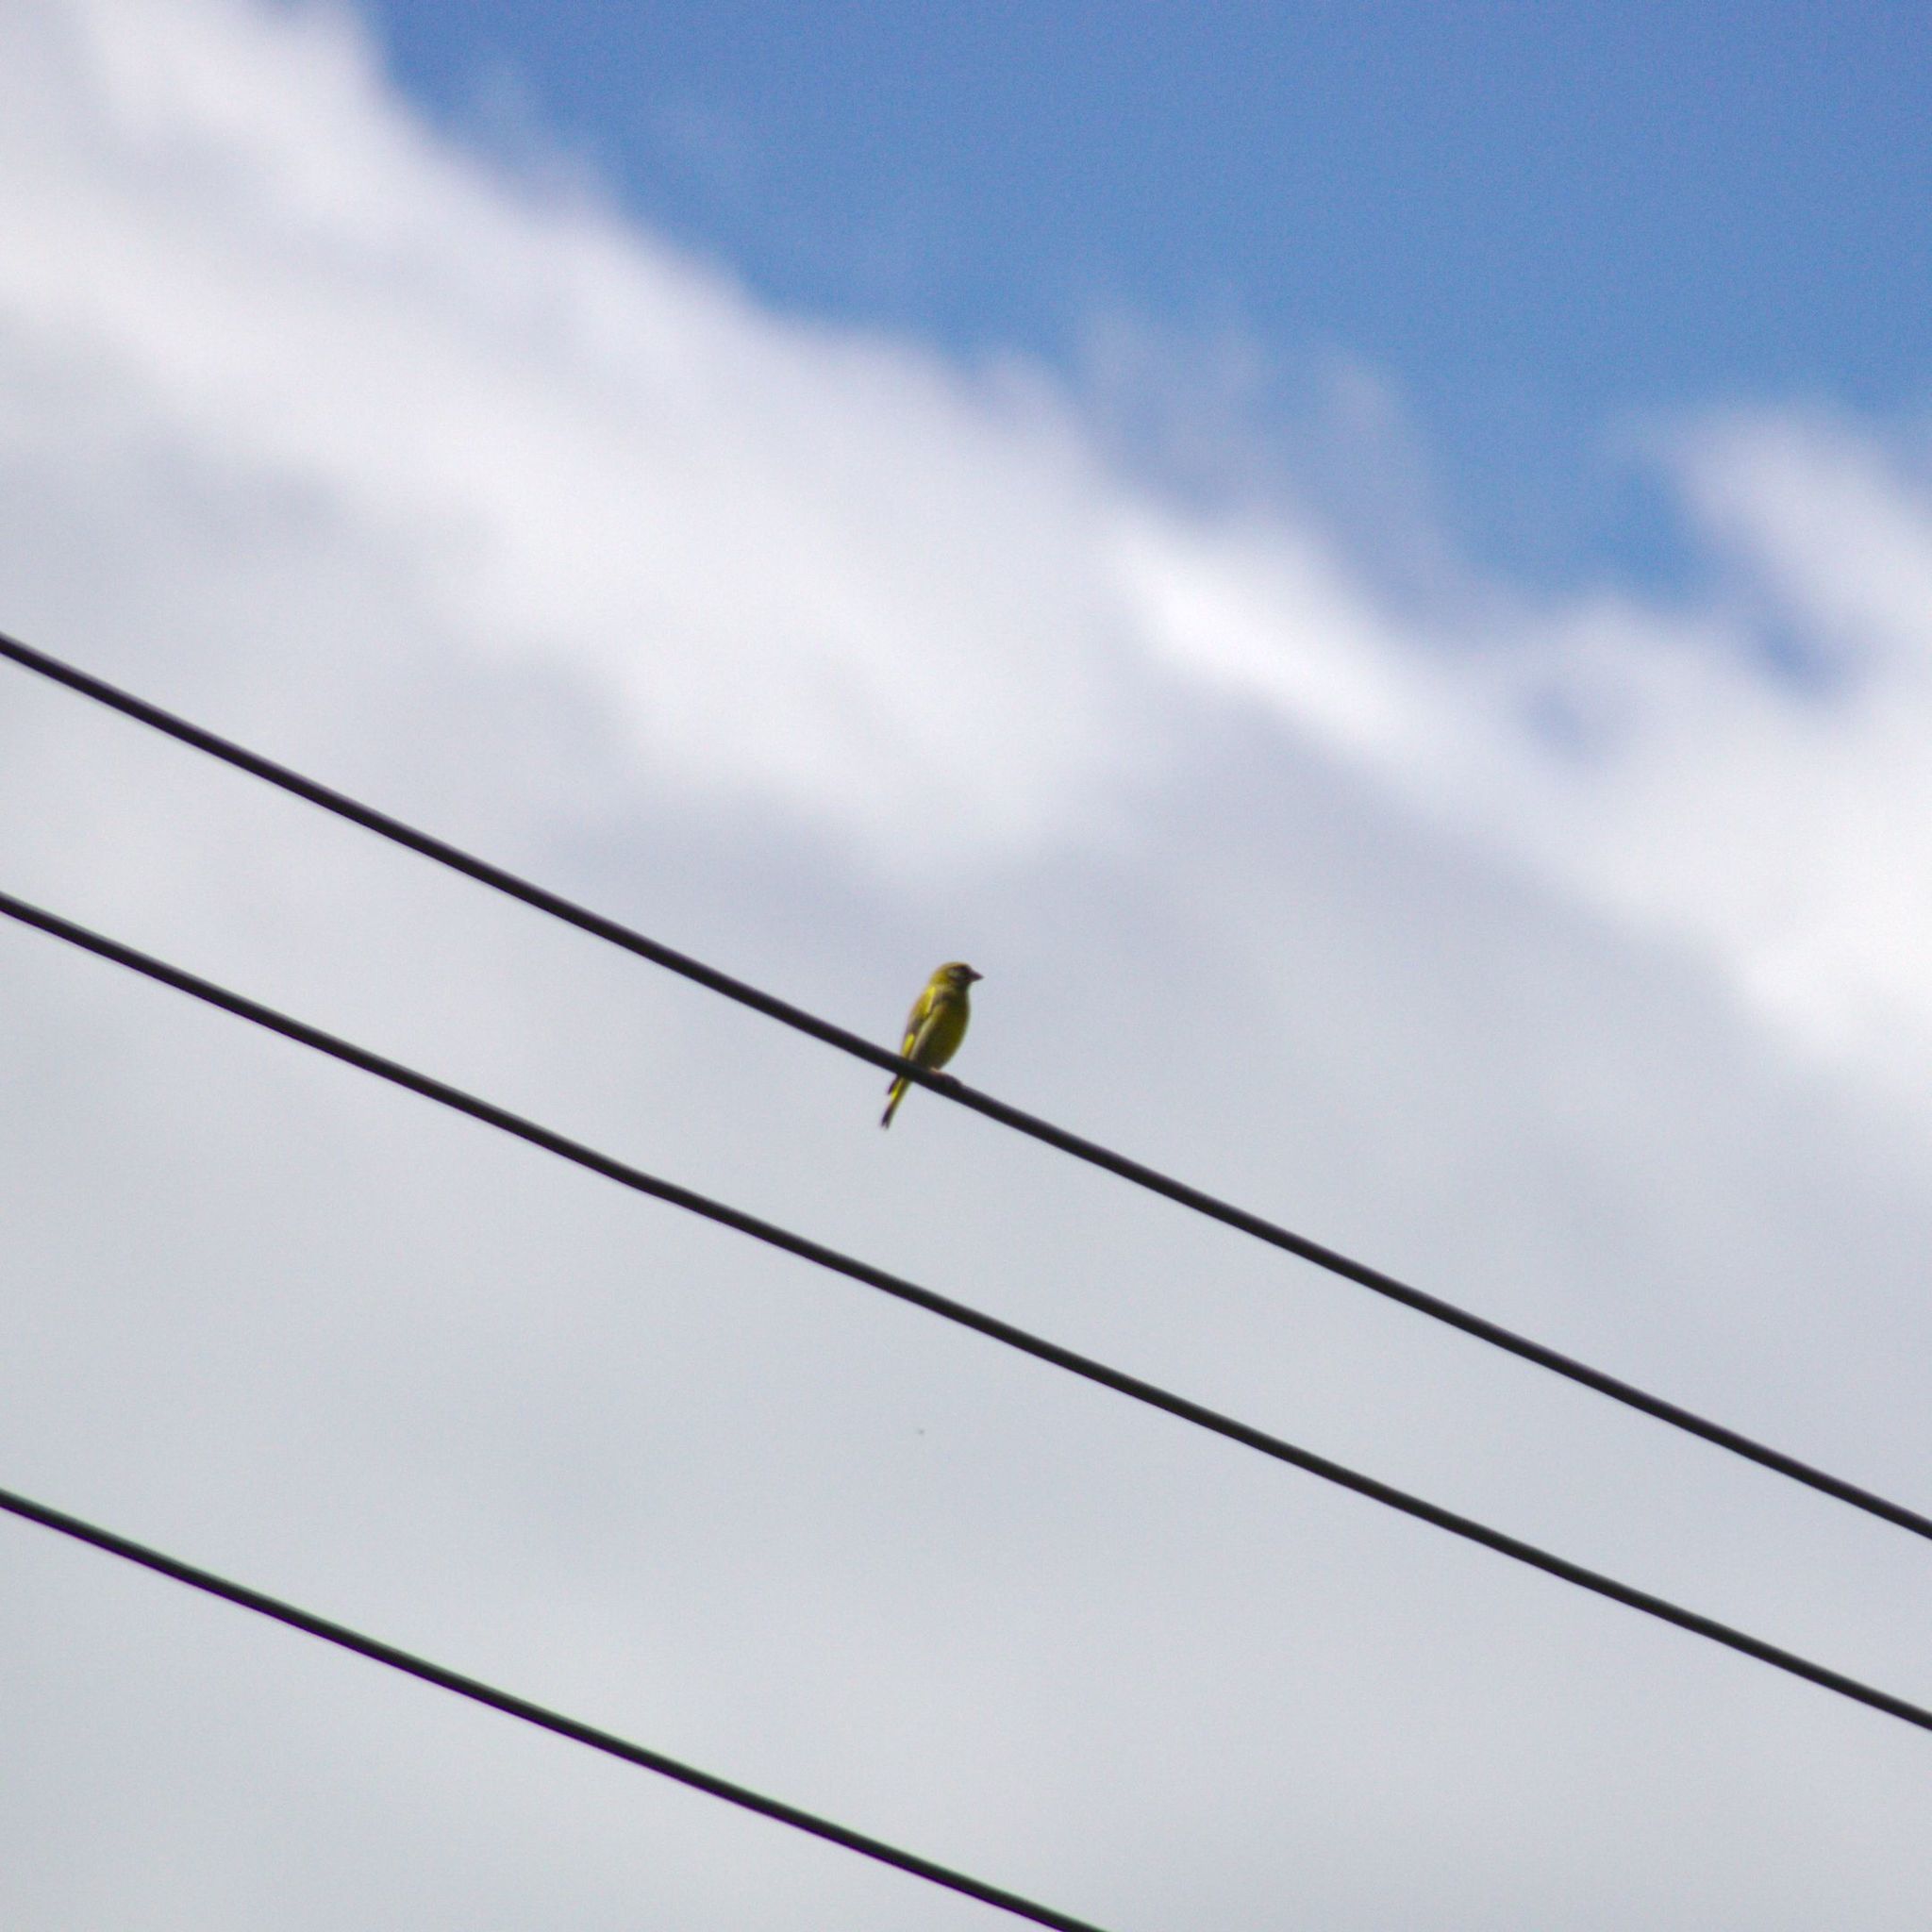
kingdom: Plantae
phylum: Tracheophyta
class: Liliopsida
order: Poales
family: Poaceae
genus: Chloris
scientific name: Chloris chloris
